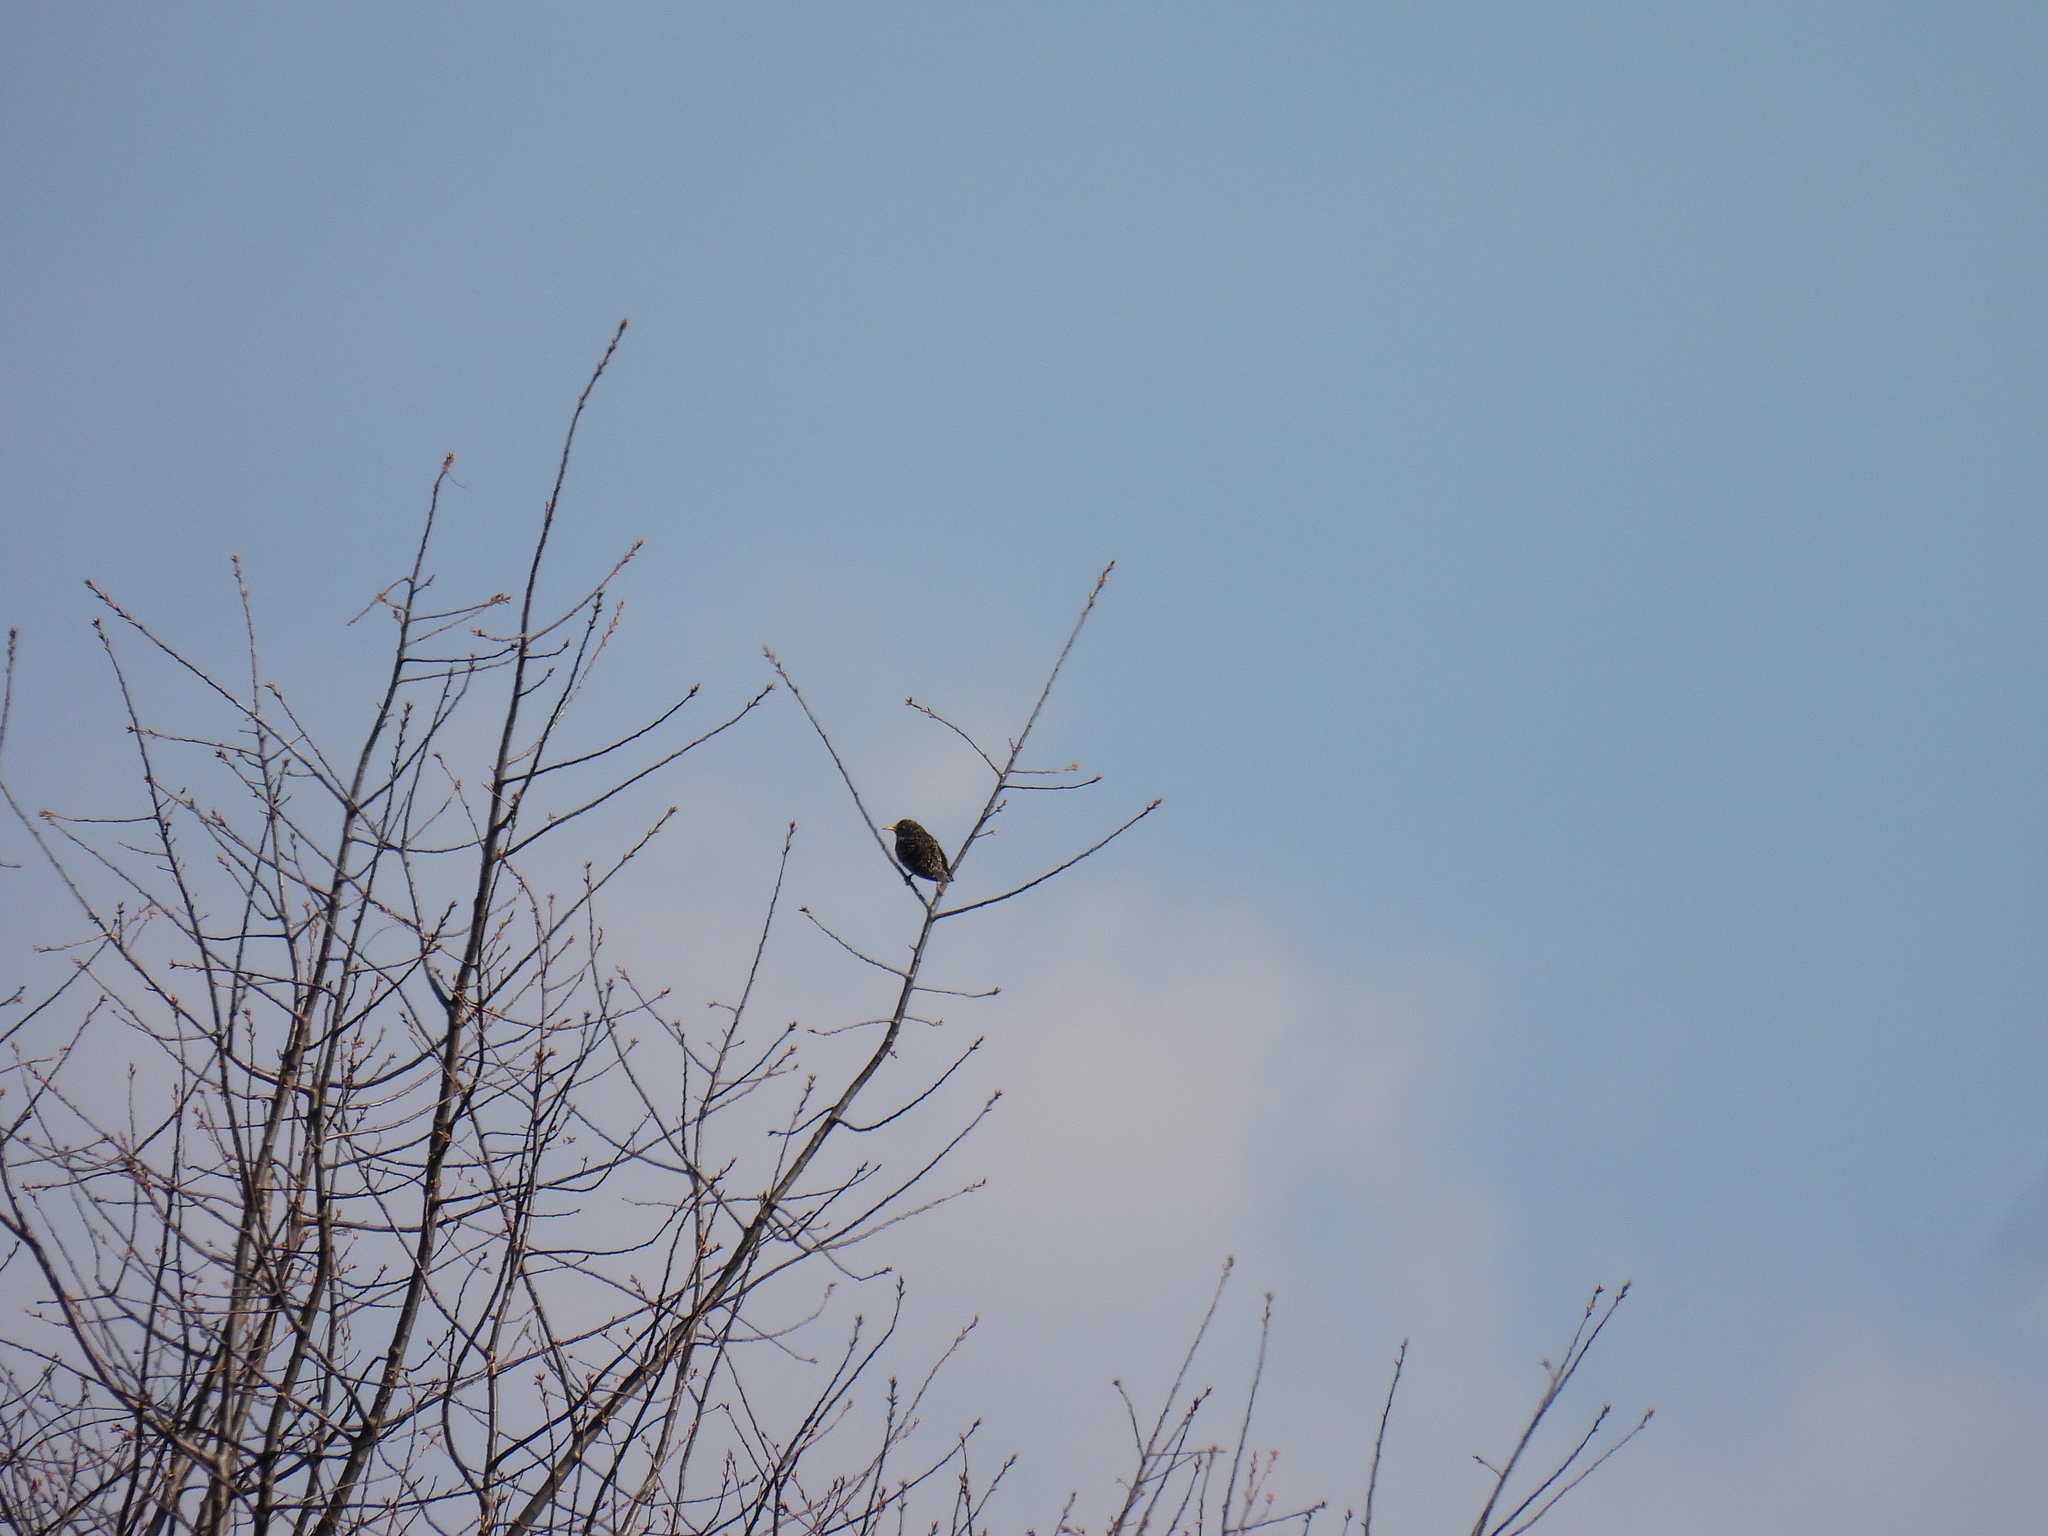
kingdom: Animalia
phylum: Chordata
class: Aves
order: Passeriformes
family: Sturnidae
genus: Sturnus
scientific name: Sturnus vulgaris
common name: Common starling
